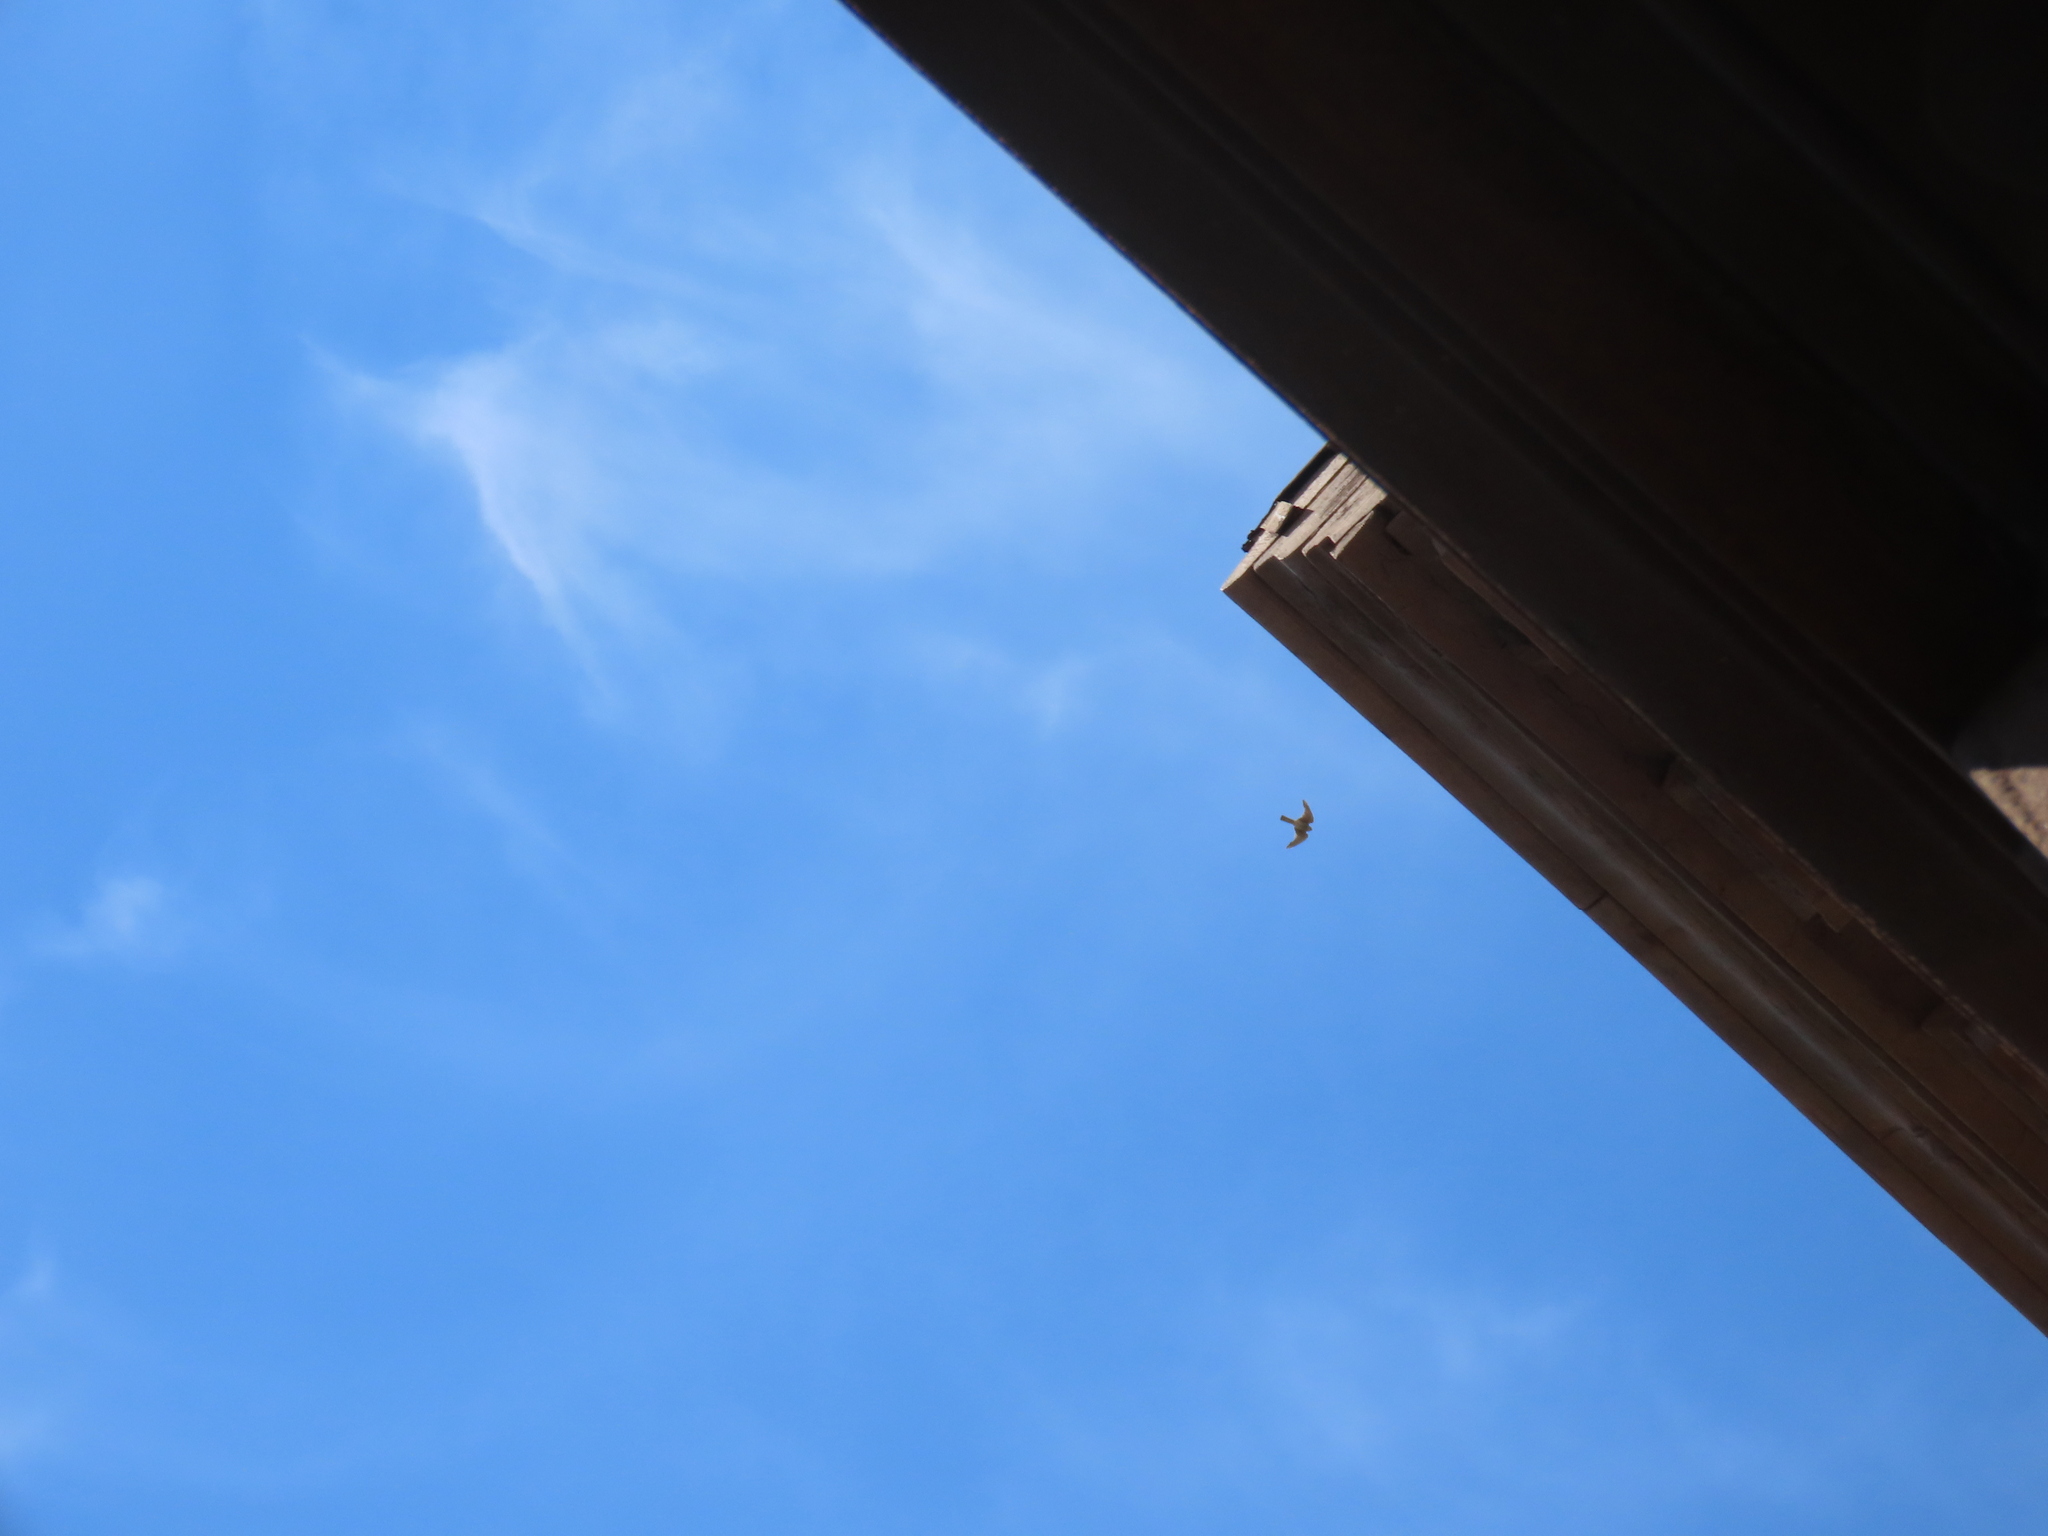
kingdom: Animalia
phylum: Chordata
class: Aves
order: Falconiformes
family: Falconidae
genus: Falco
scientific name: Falco sparverius
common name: American kestrel
